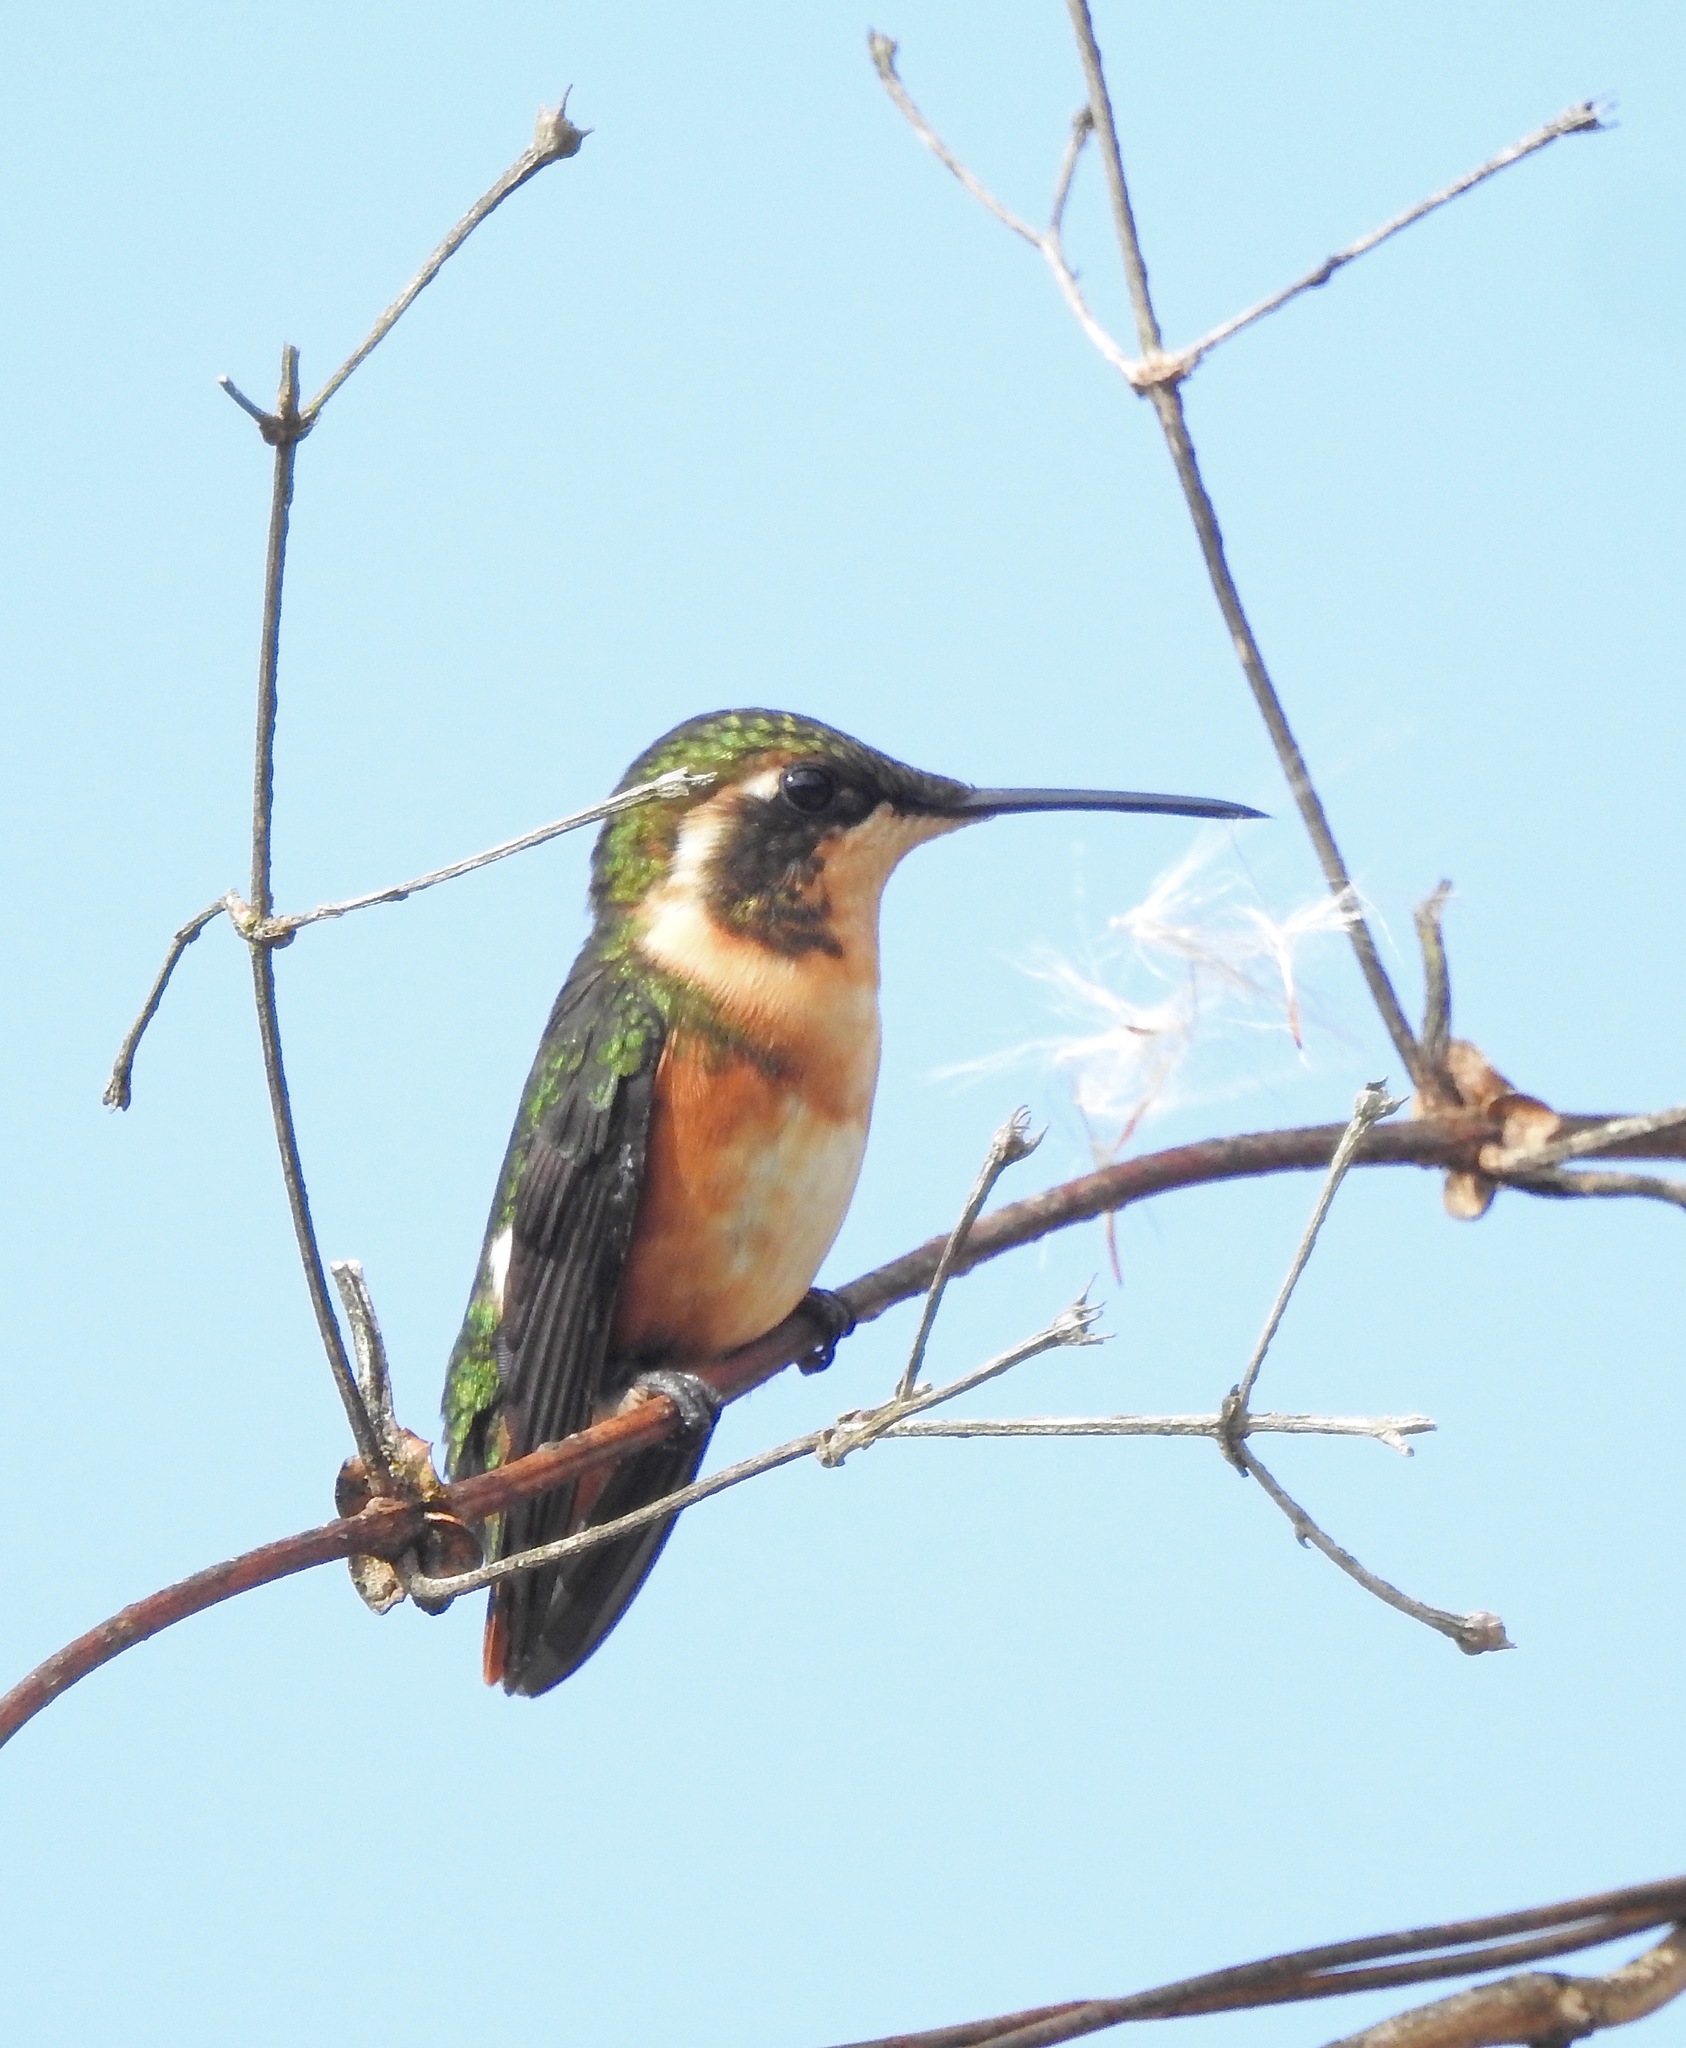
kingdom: Animalia
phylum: Chordata
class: Aves
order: Apodiformes
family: Trochilidae
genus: Chaetocercus
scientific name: Chaetocercus mulsant
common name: White-bellied woodstar
